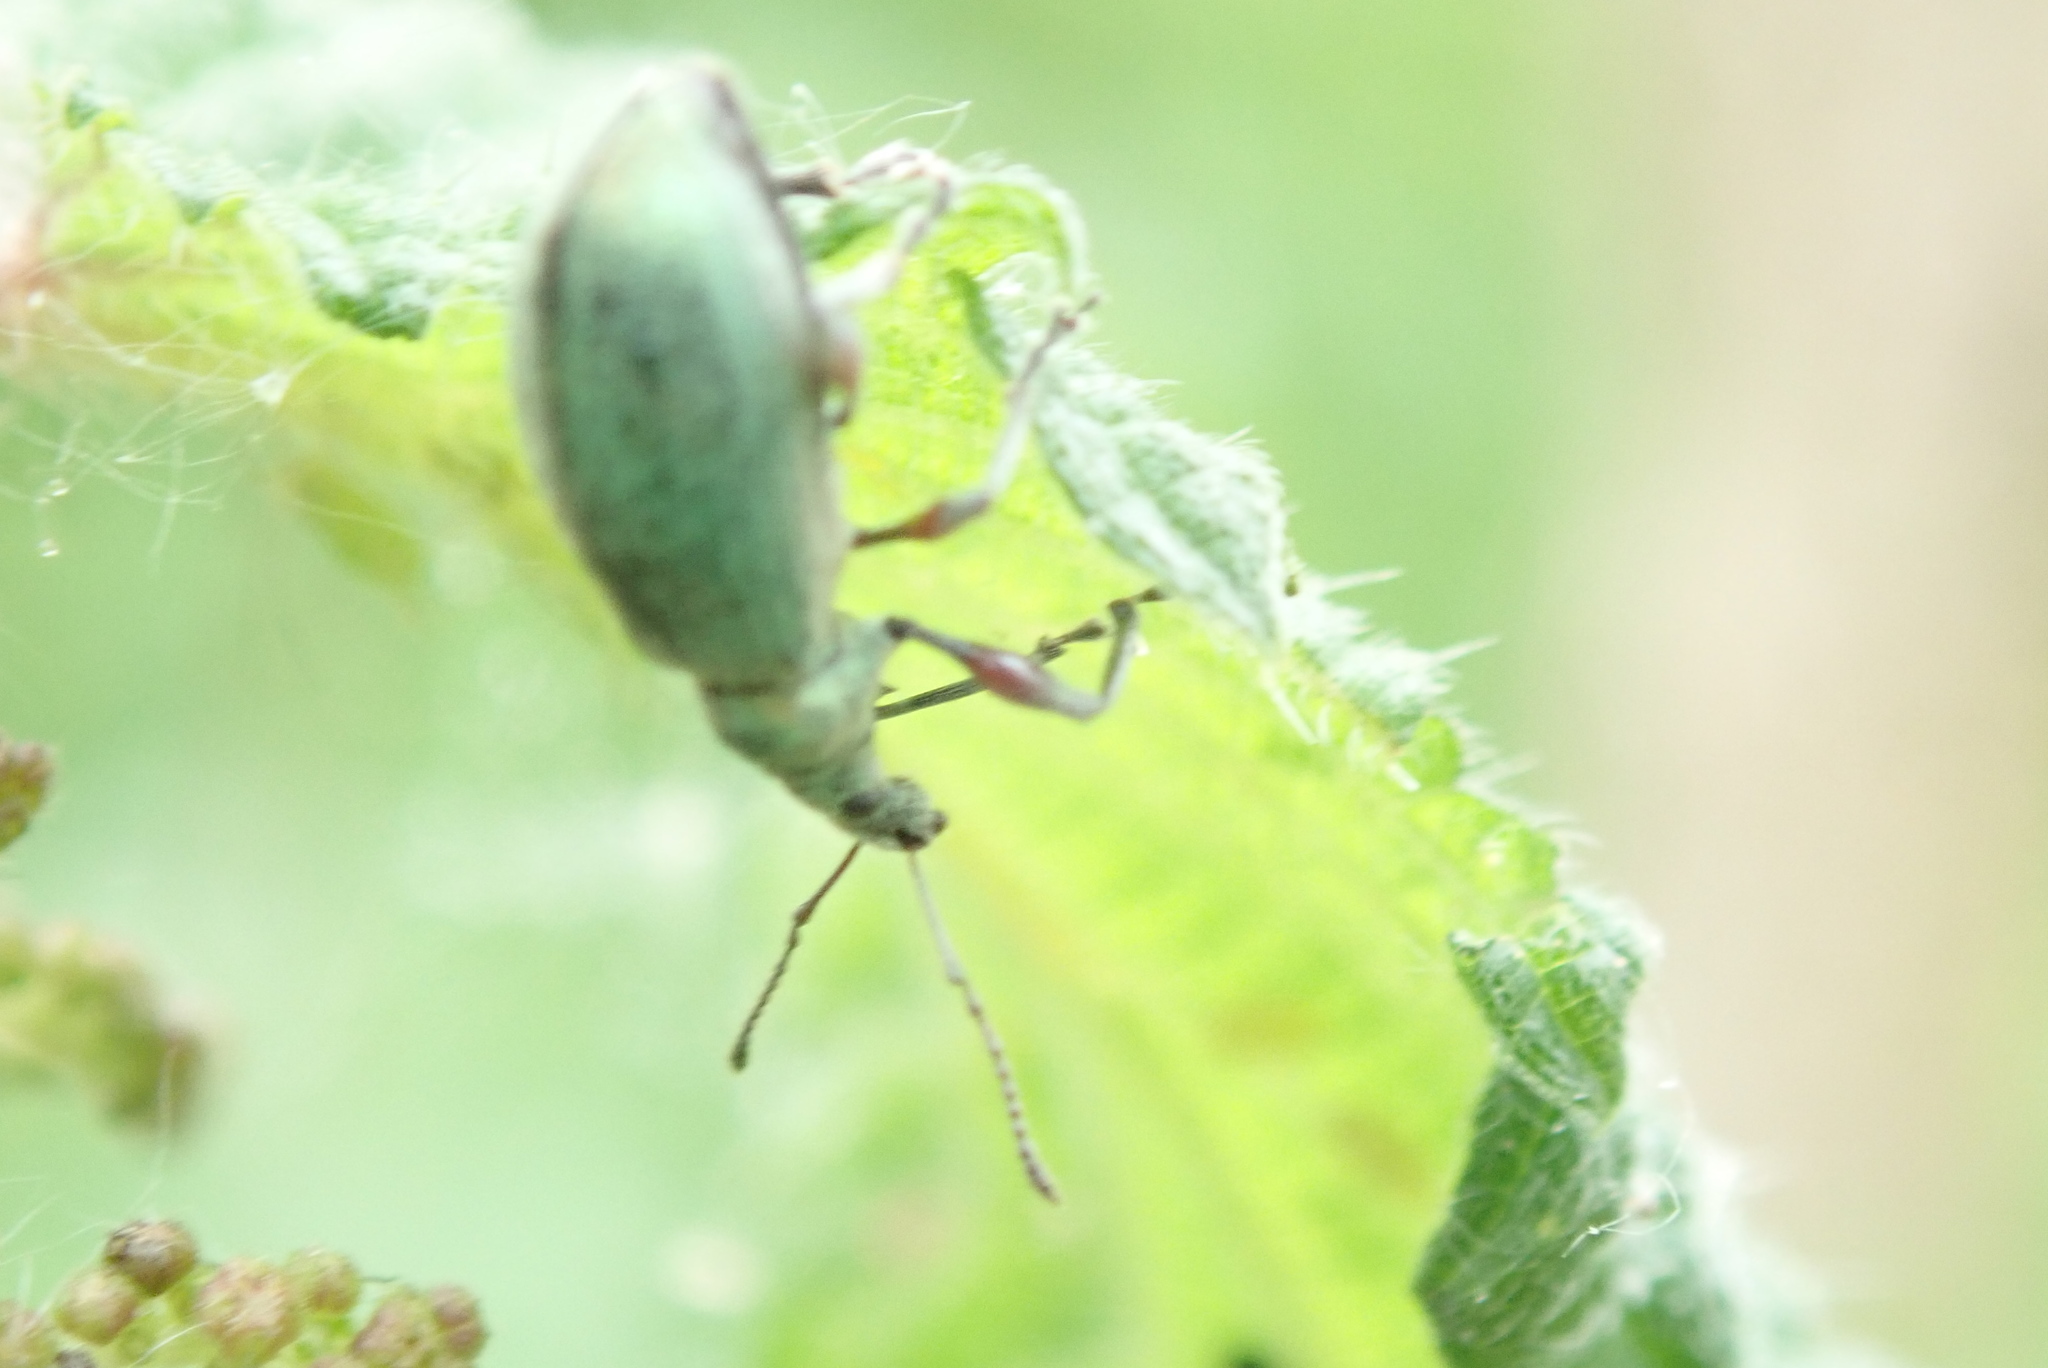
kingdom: Animalia
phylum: Arthropoda
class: Insecta
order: Coleoptera
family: Curculionidae
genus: Phyllobius
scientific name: Phyllobius pomaceus
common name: Green nettle weevil
